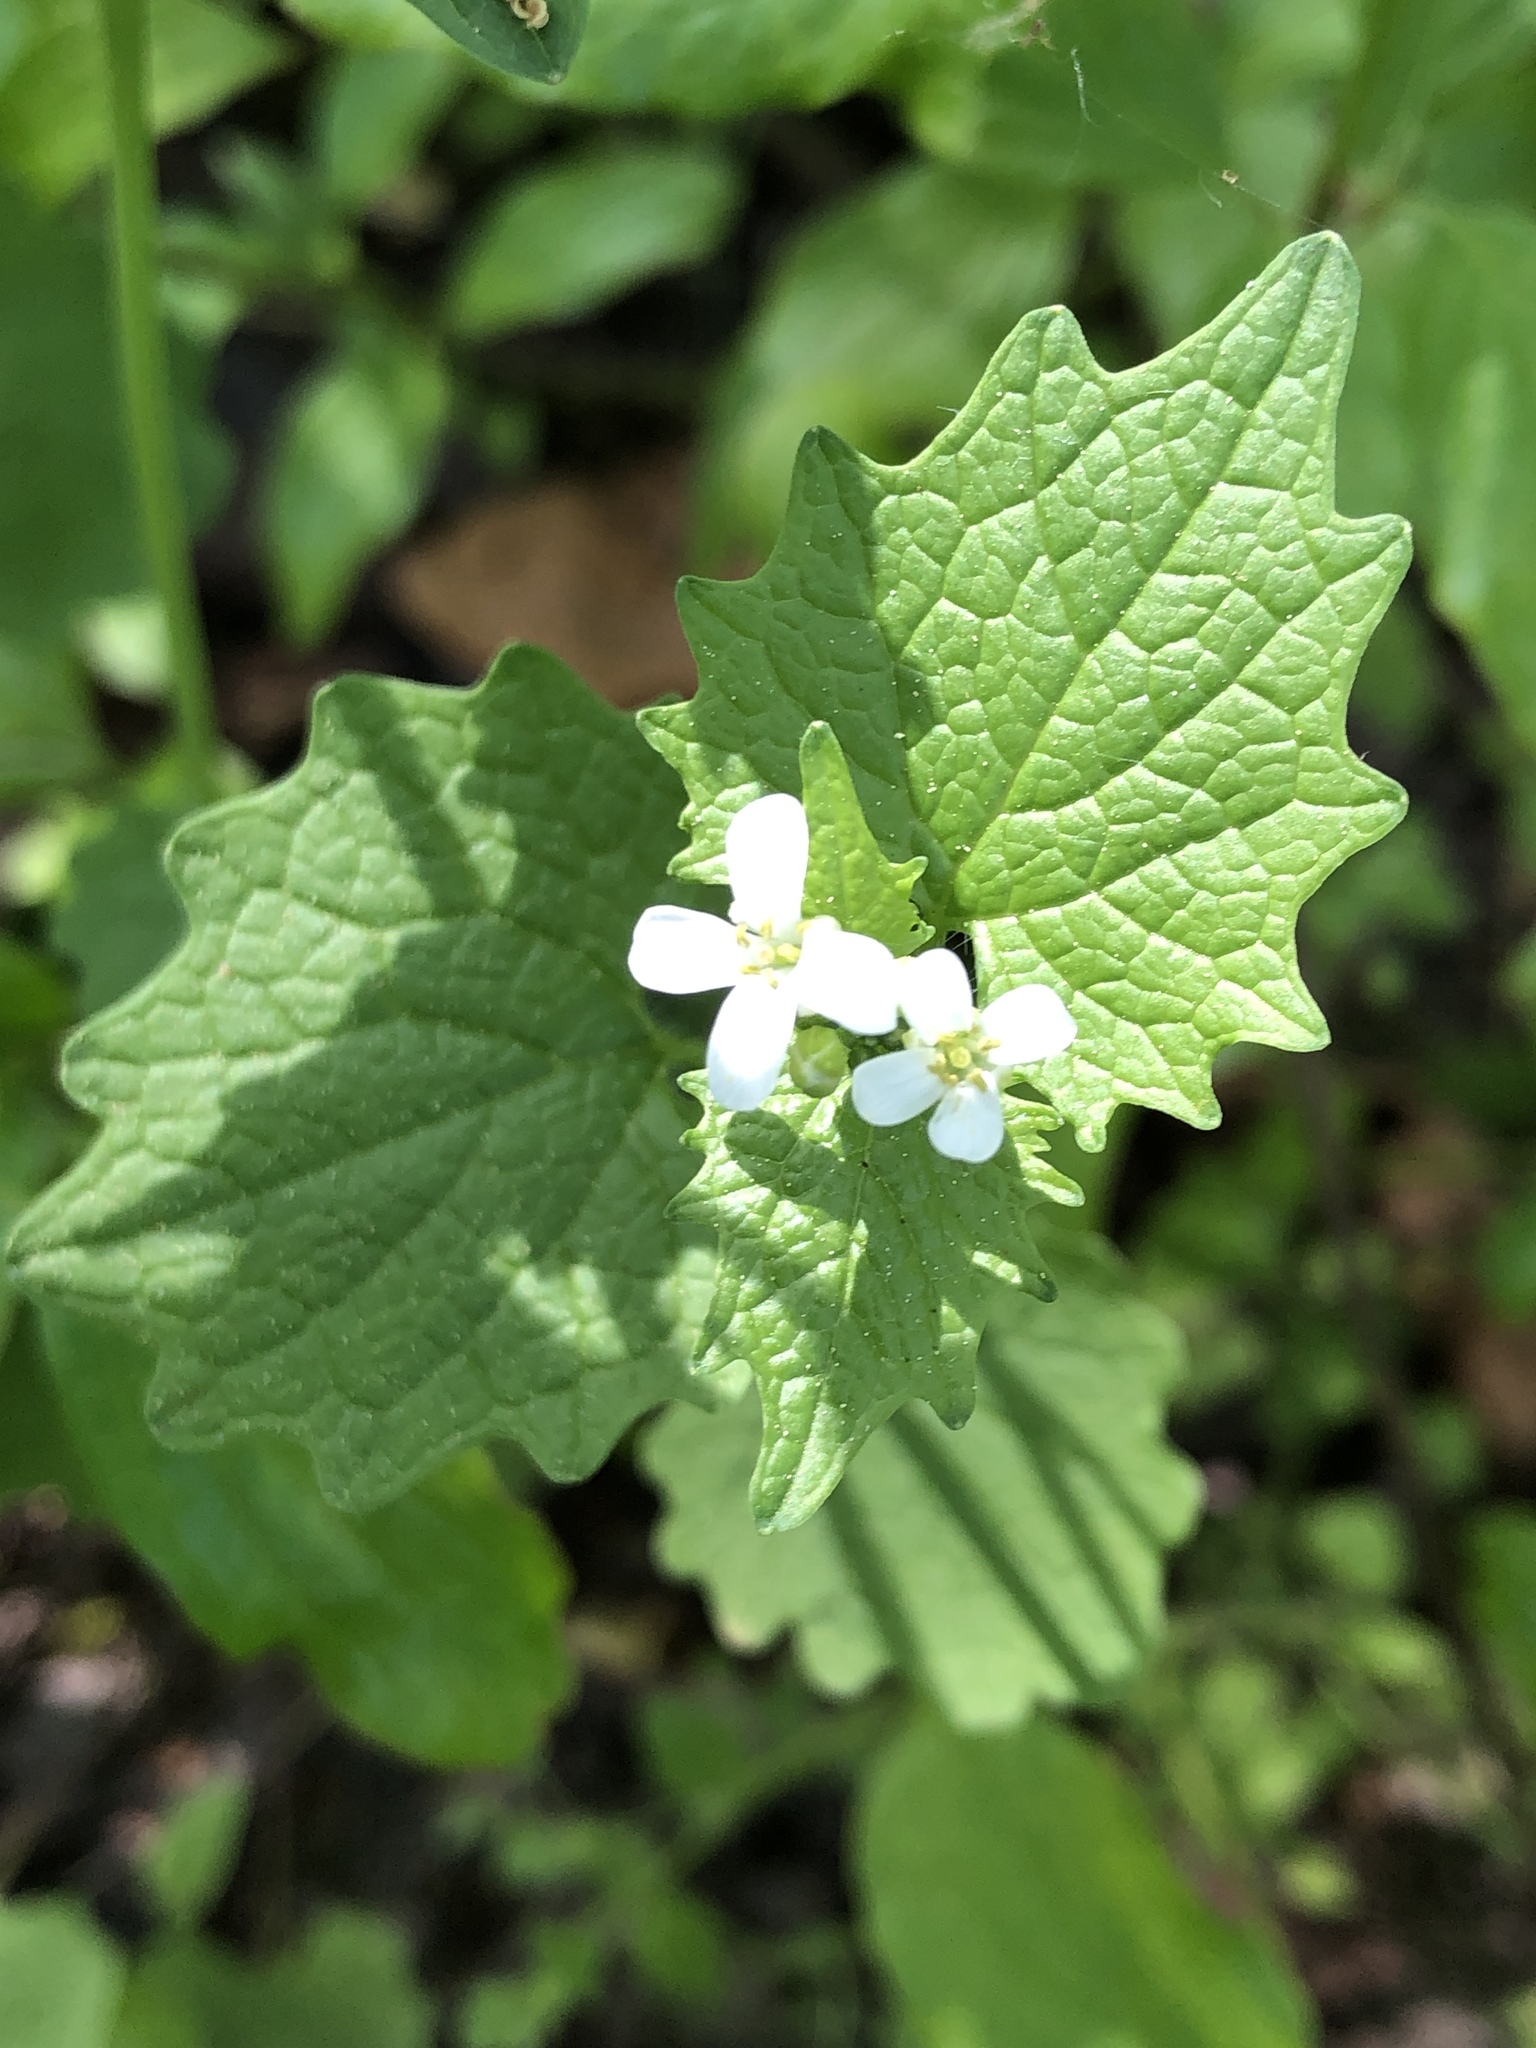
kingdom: Plantae
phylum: Tracheophyta
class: Magnoliopsida
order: Brassicales
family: Brassicaceae
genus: Alliaria
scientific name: Alliaria petiolata
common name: Garlic mustard
